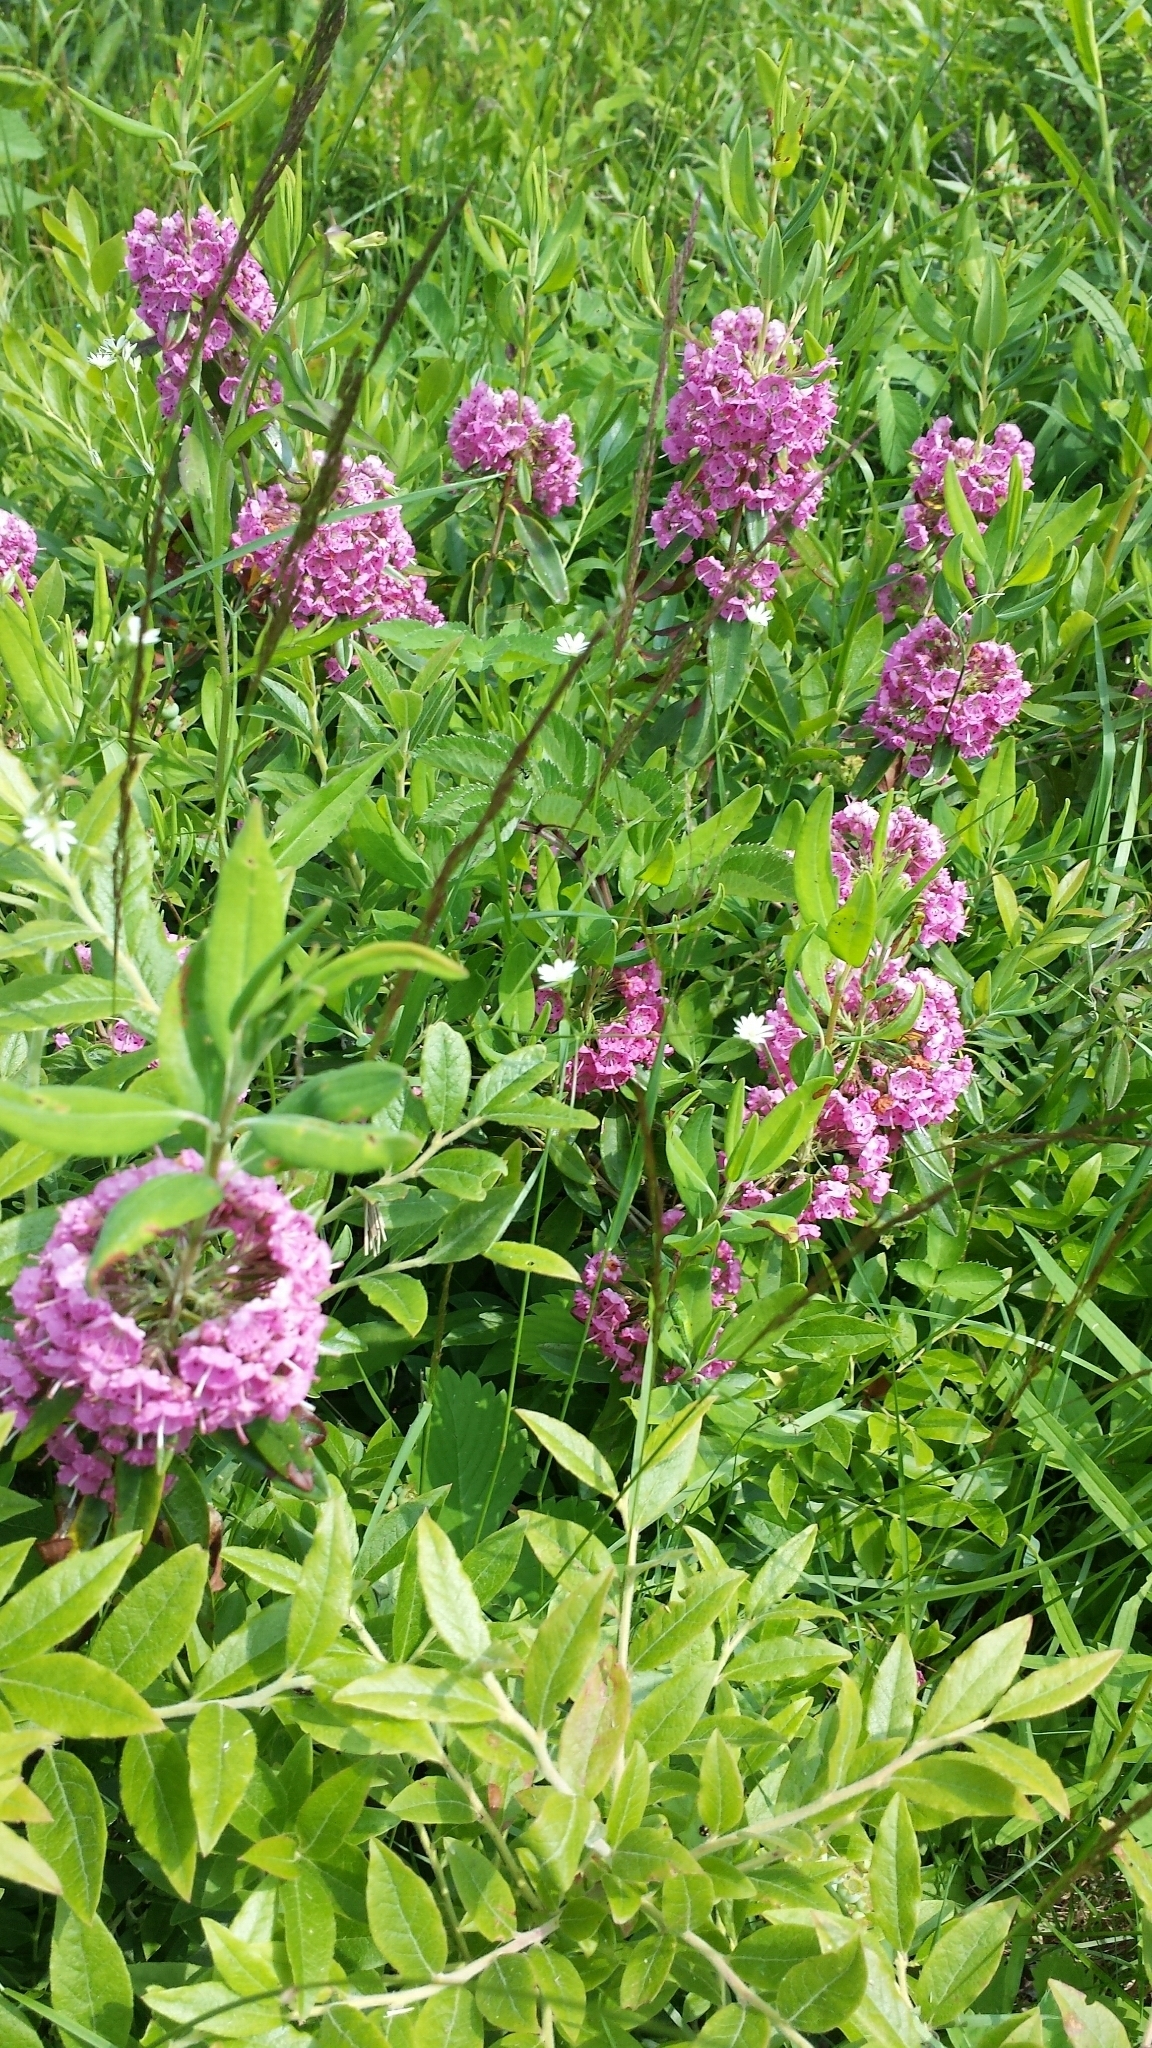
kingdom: Plantae
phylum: Tracheophyta
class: Magnoliopsida
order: Ericales
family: Ericaceae
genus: Kalmia
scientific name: Kalmia angustifolia
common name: Sheep-laurel
